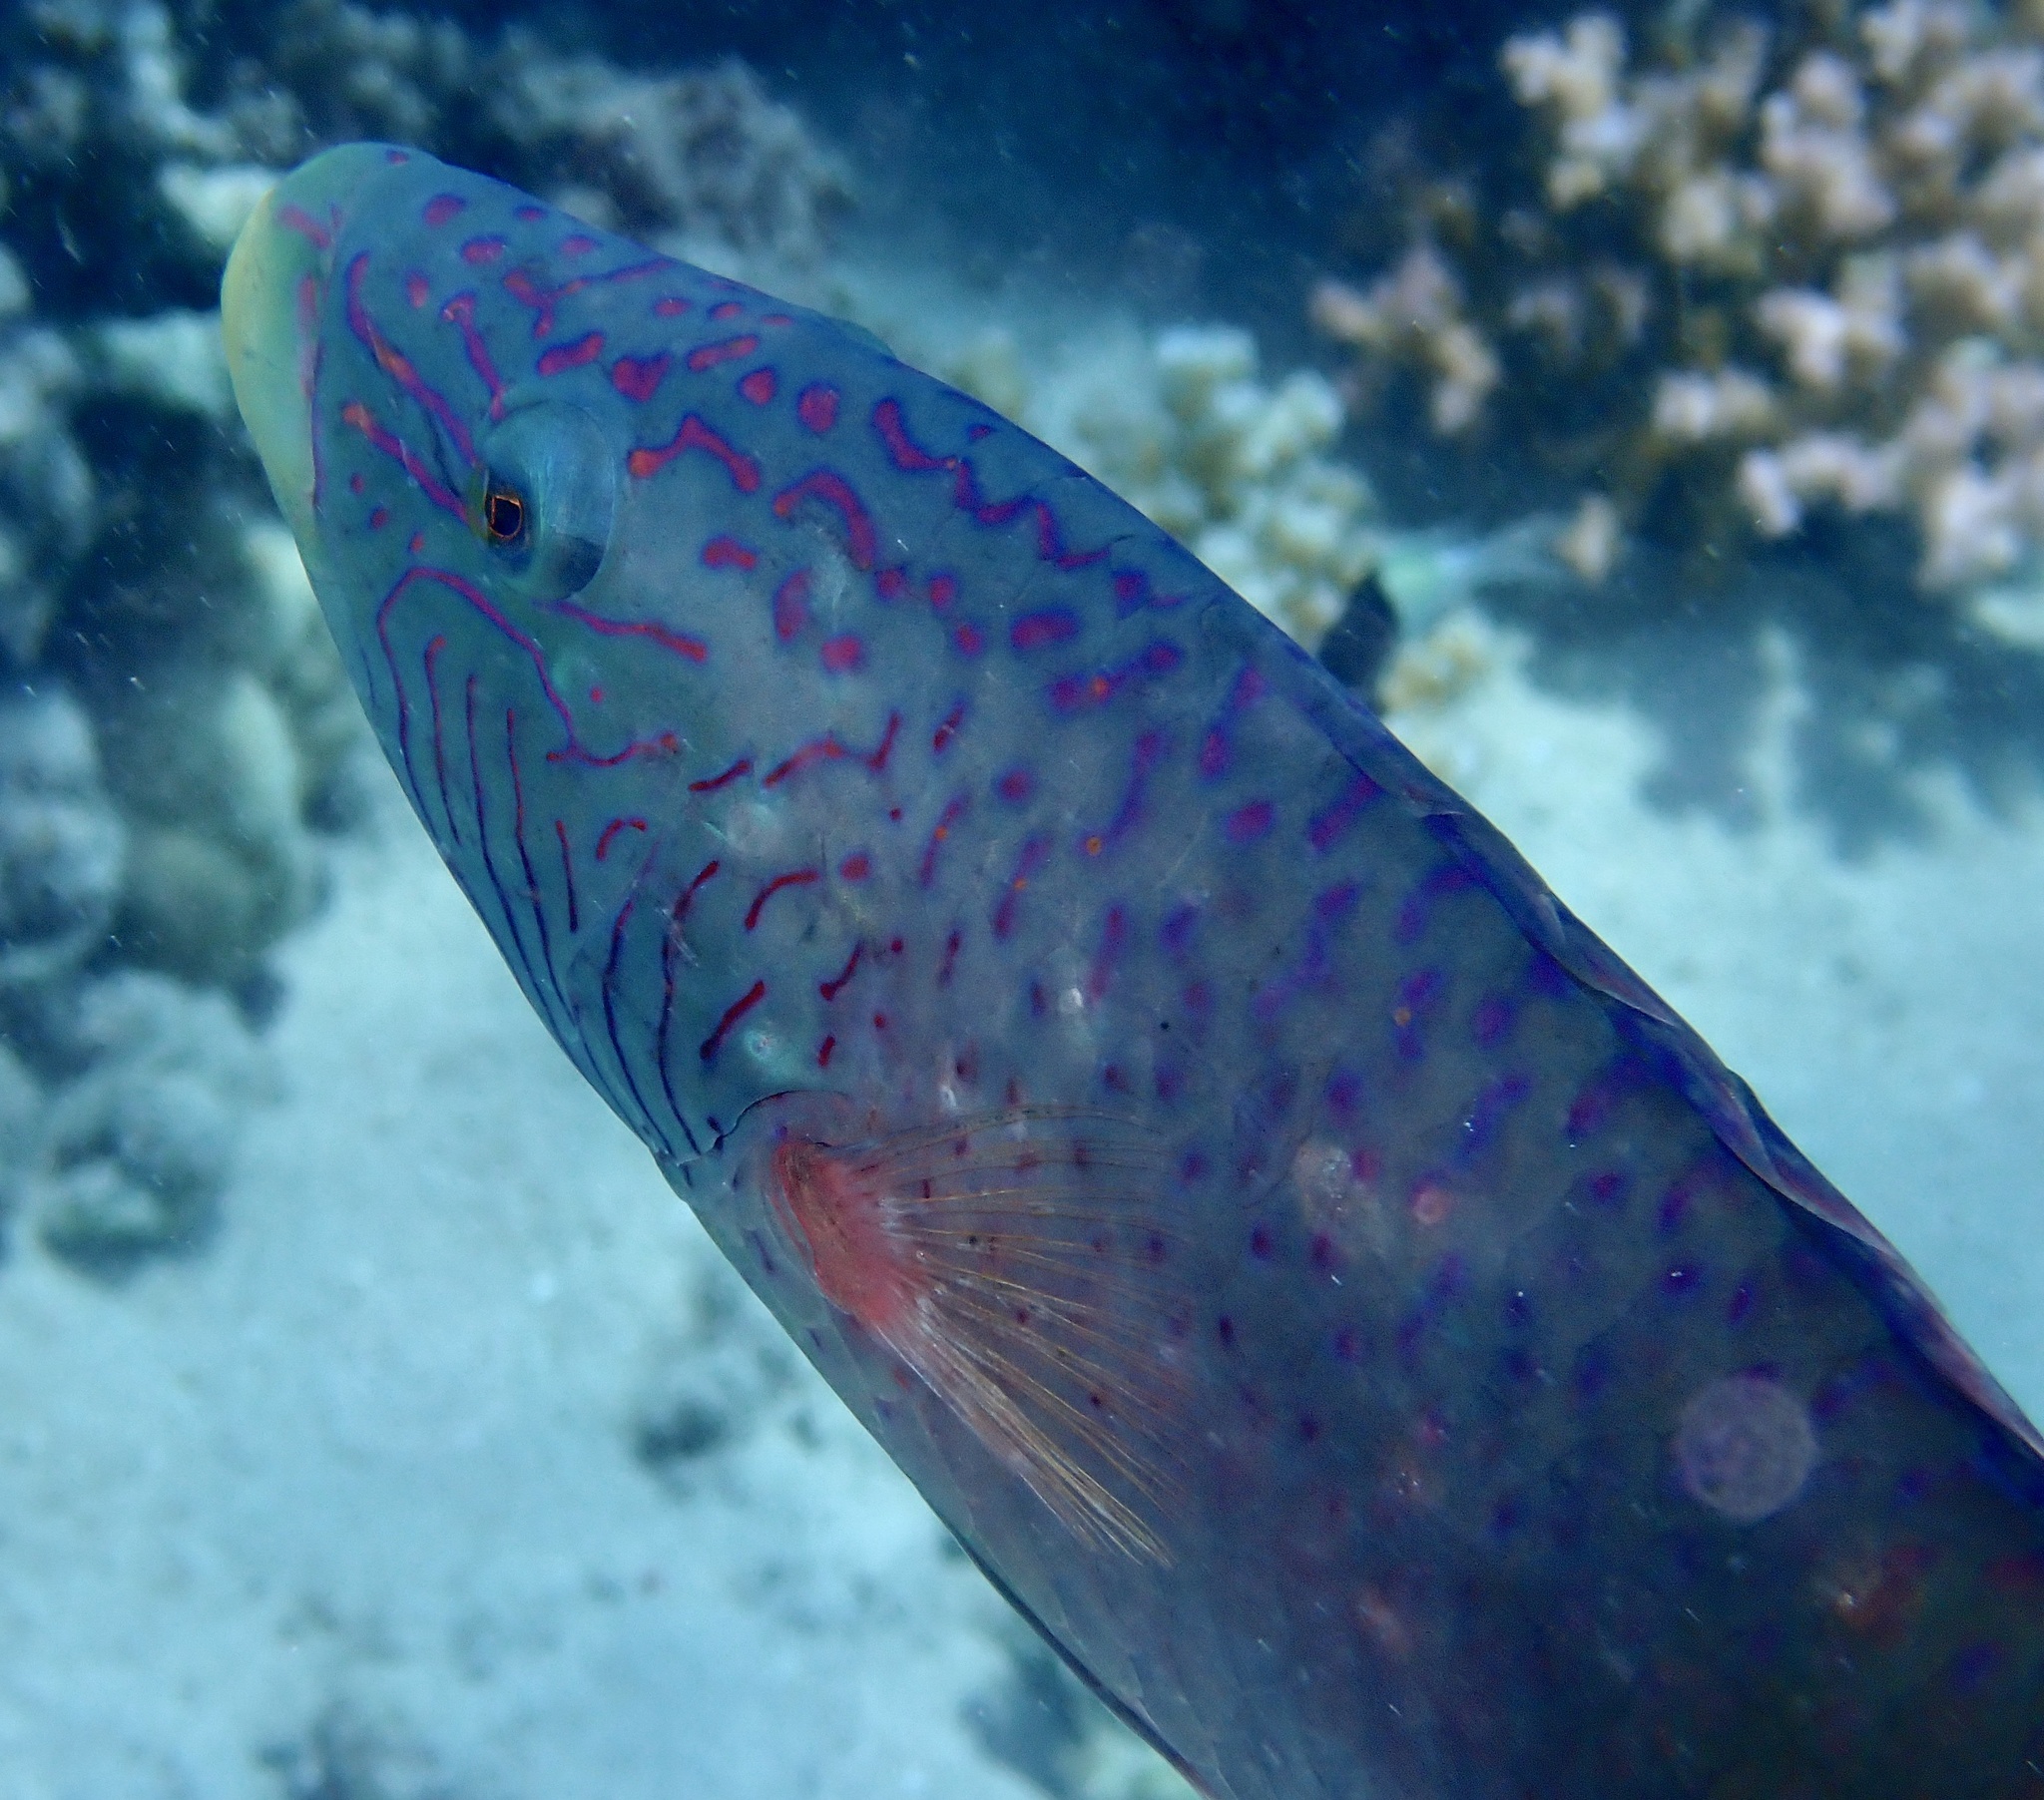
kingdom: Animalia
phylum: Chordata
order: Perciformes
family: Labridae
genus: Oxycheilinus
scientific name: Oxycheilinus digramma
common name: Bandcheek wrasse
